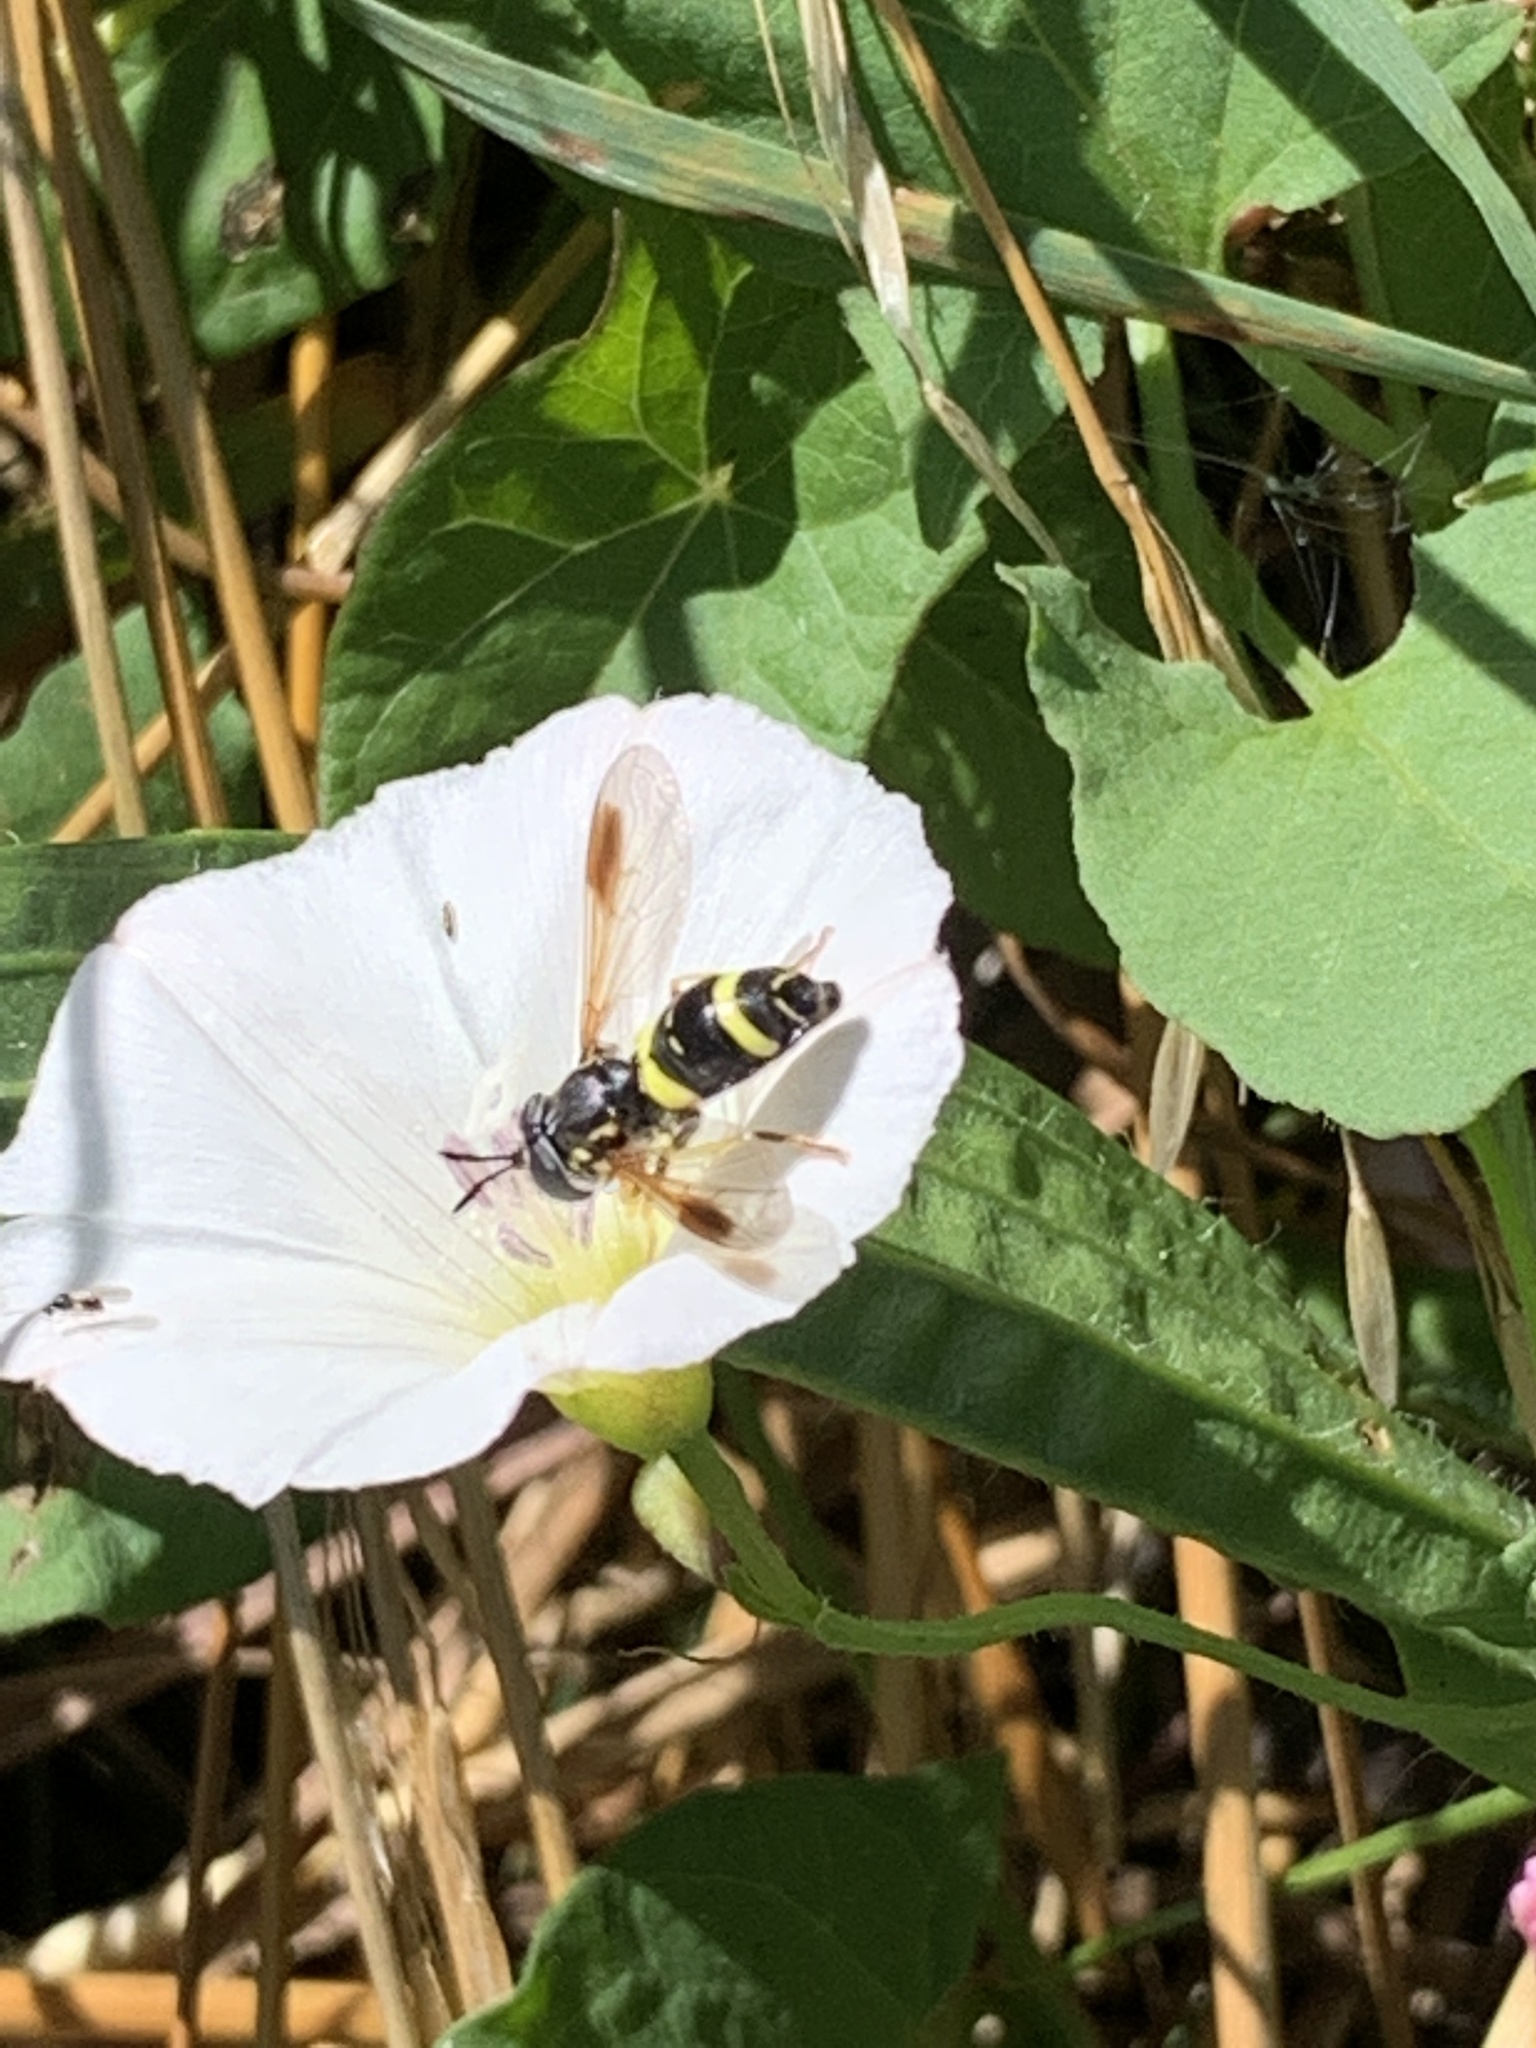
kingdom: Animalia
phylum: Arthropoda
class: Insecta
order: Diptera
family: Syrphidae
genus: Chrysotoxum
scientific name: Chrysotoxum bicincta
